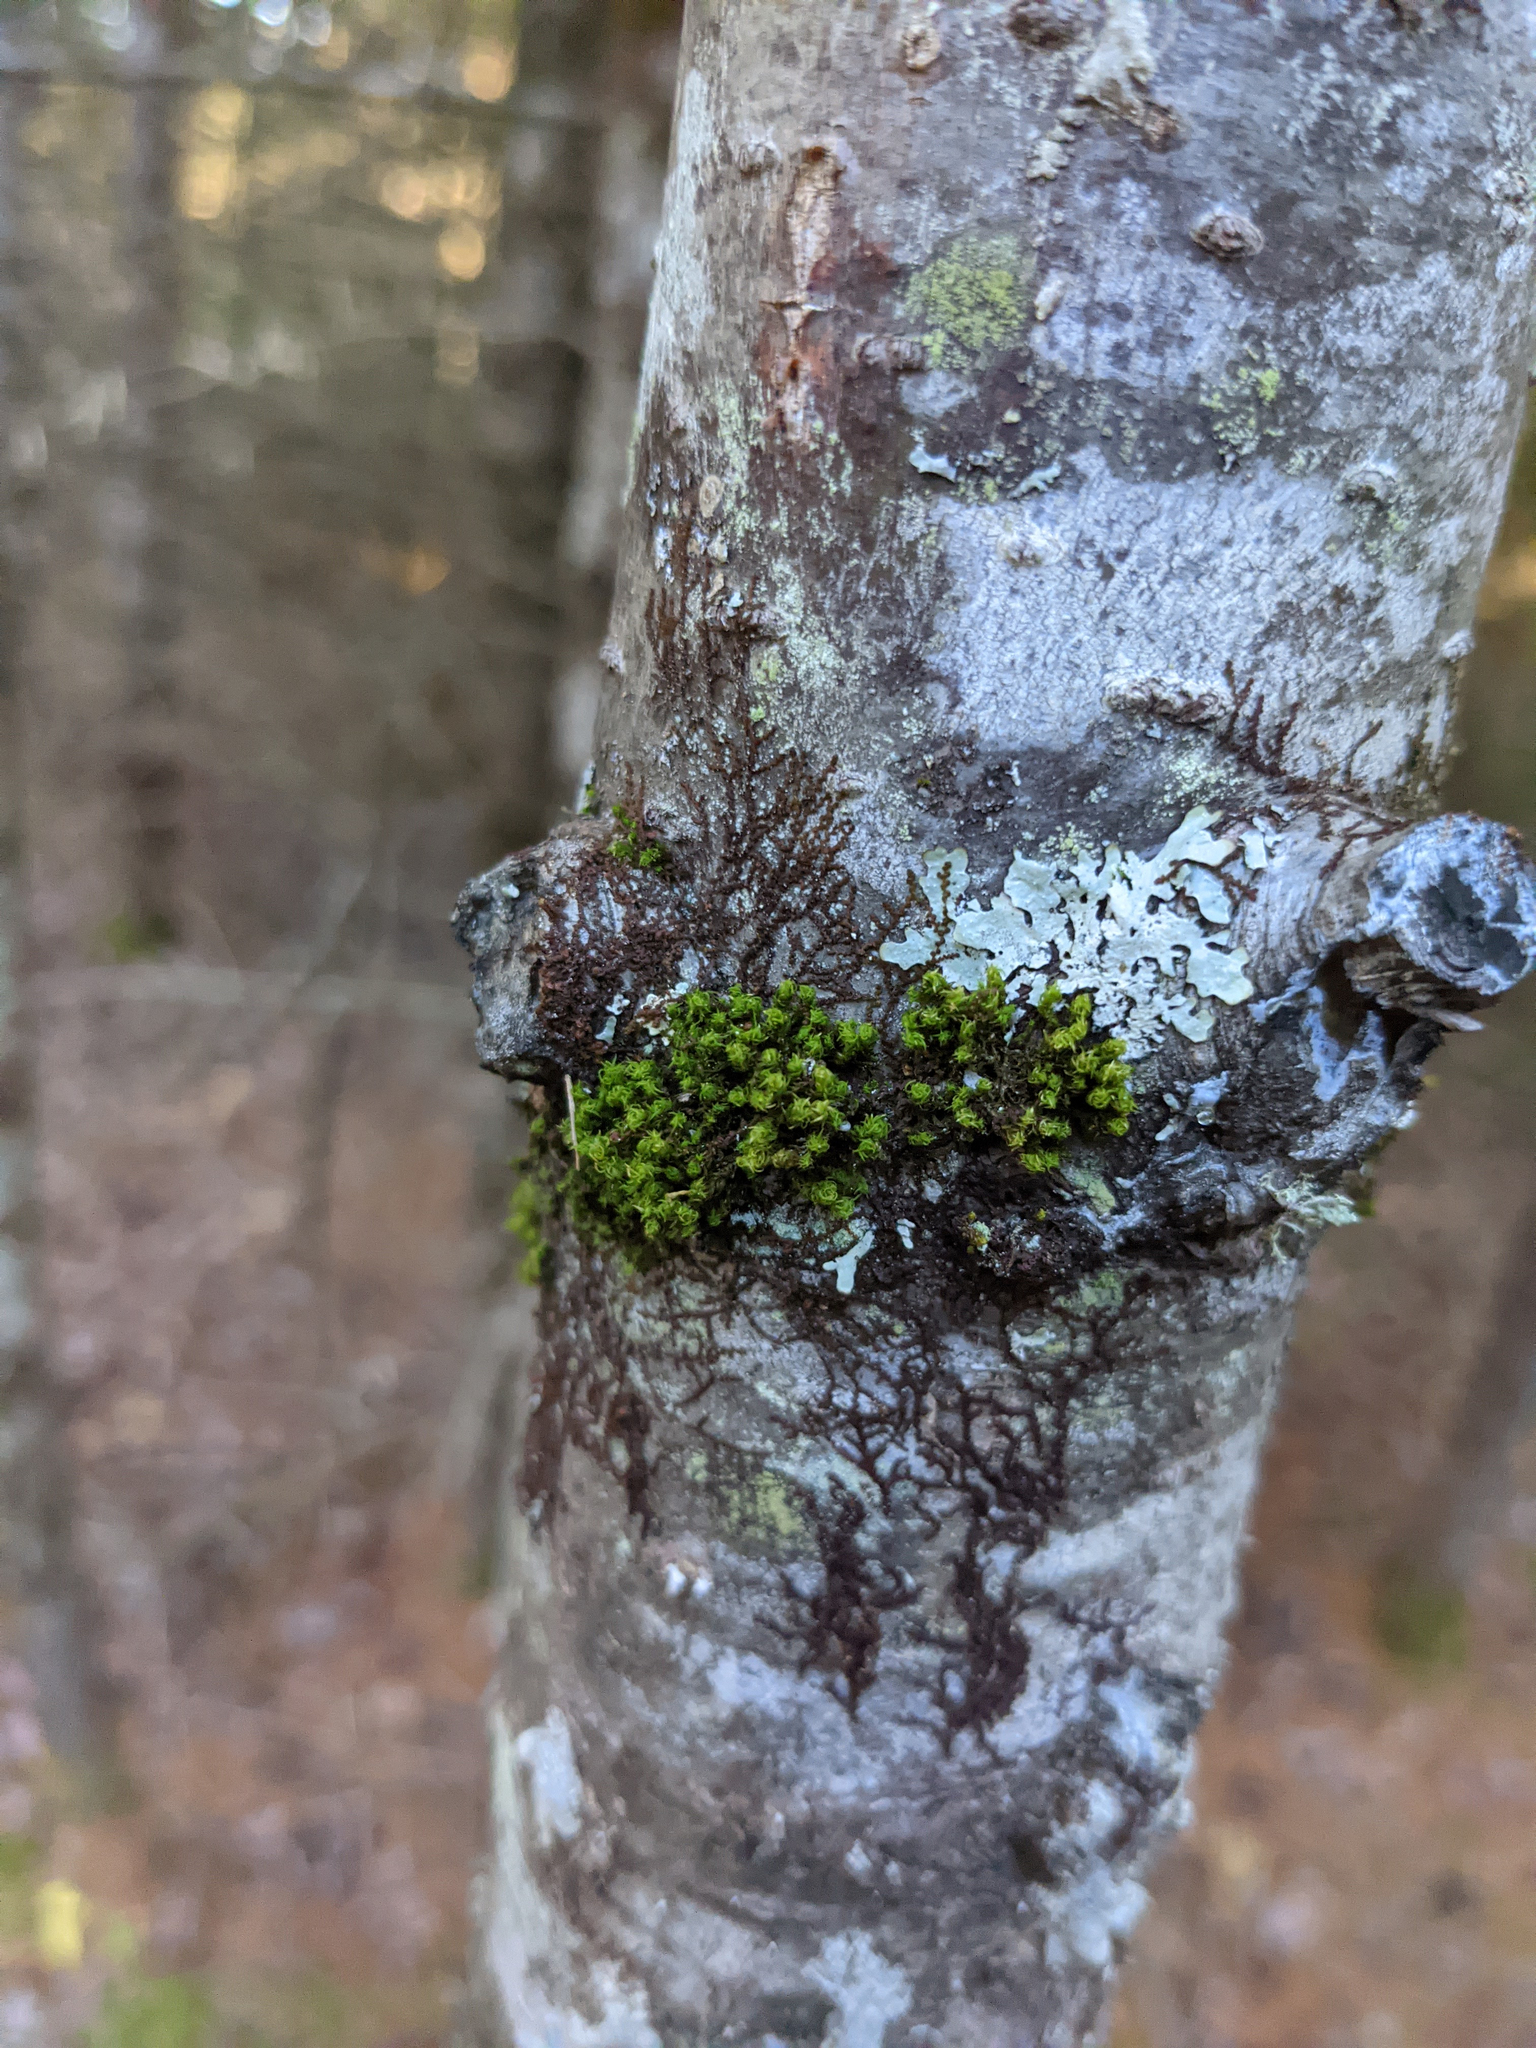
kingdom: Plantae
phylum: Bryophyta
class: Bryopsida
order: Orthotrichales
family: Orthotrichaceae
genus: Ulota
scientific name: Ulota crispa
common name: Crisped pincushion moss
